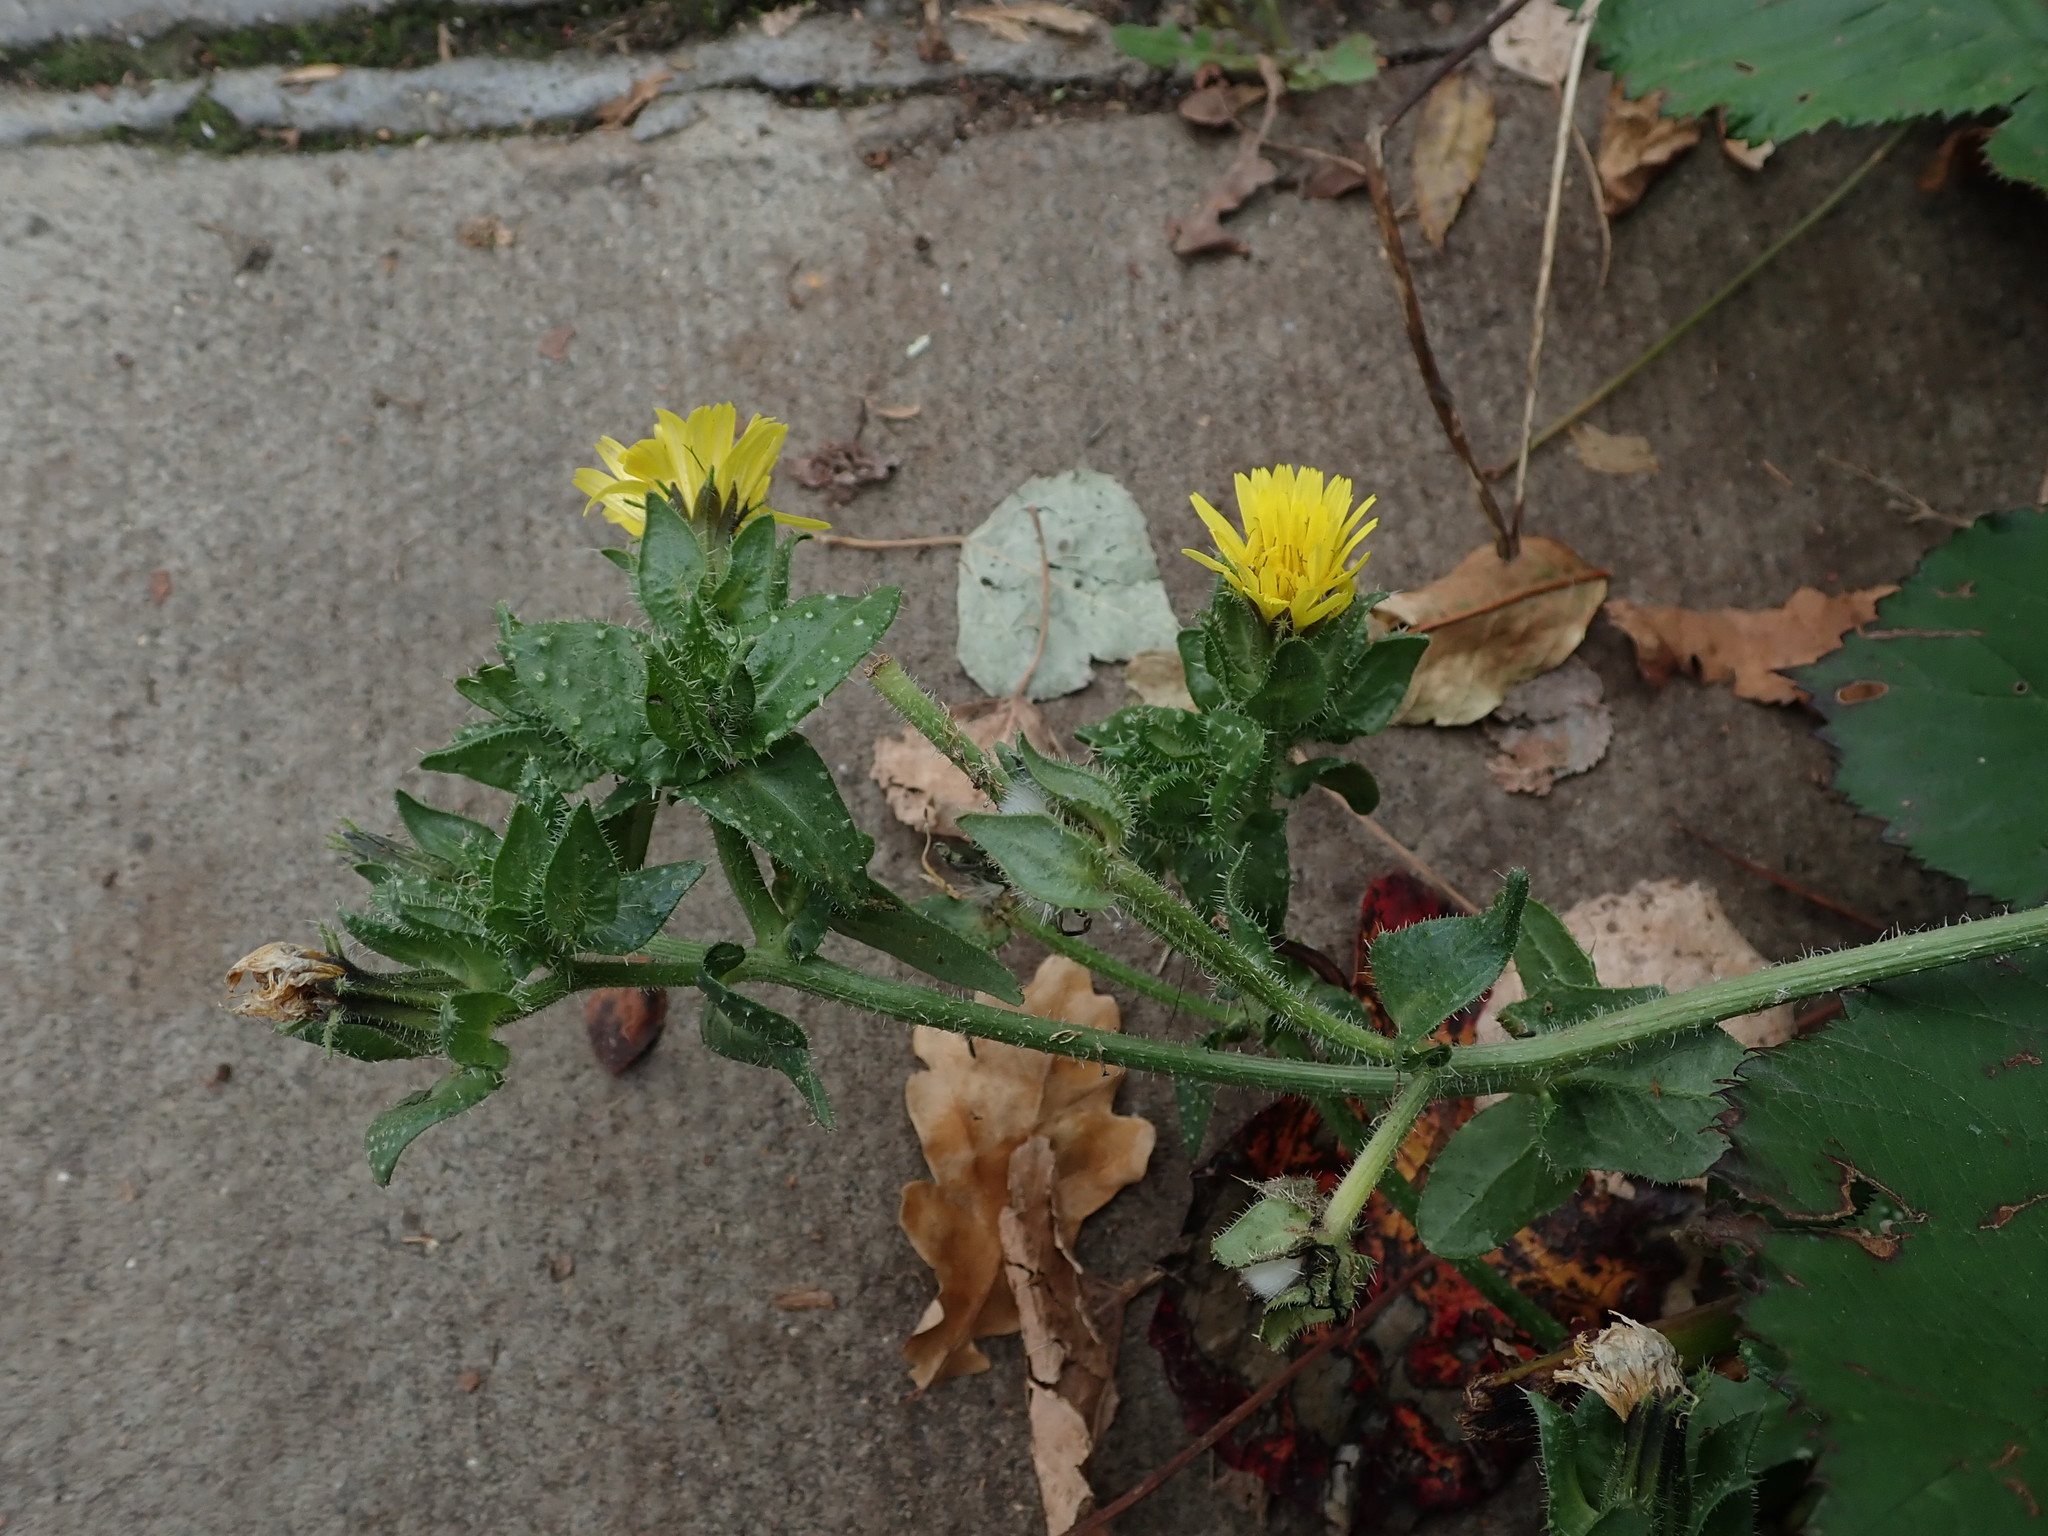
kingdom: Plantae
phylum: Tracheophyta
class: Magnoliopsida
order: Asterales
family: Asteraceae
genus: Helminthotheca
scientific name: Helminthotheca echioides
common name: Ox-tongue
